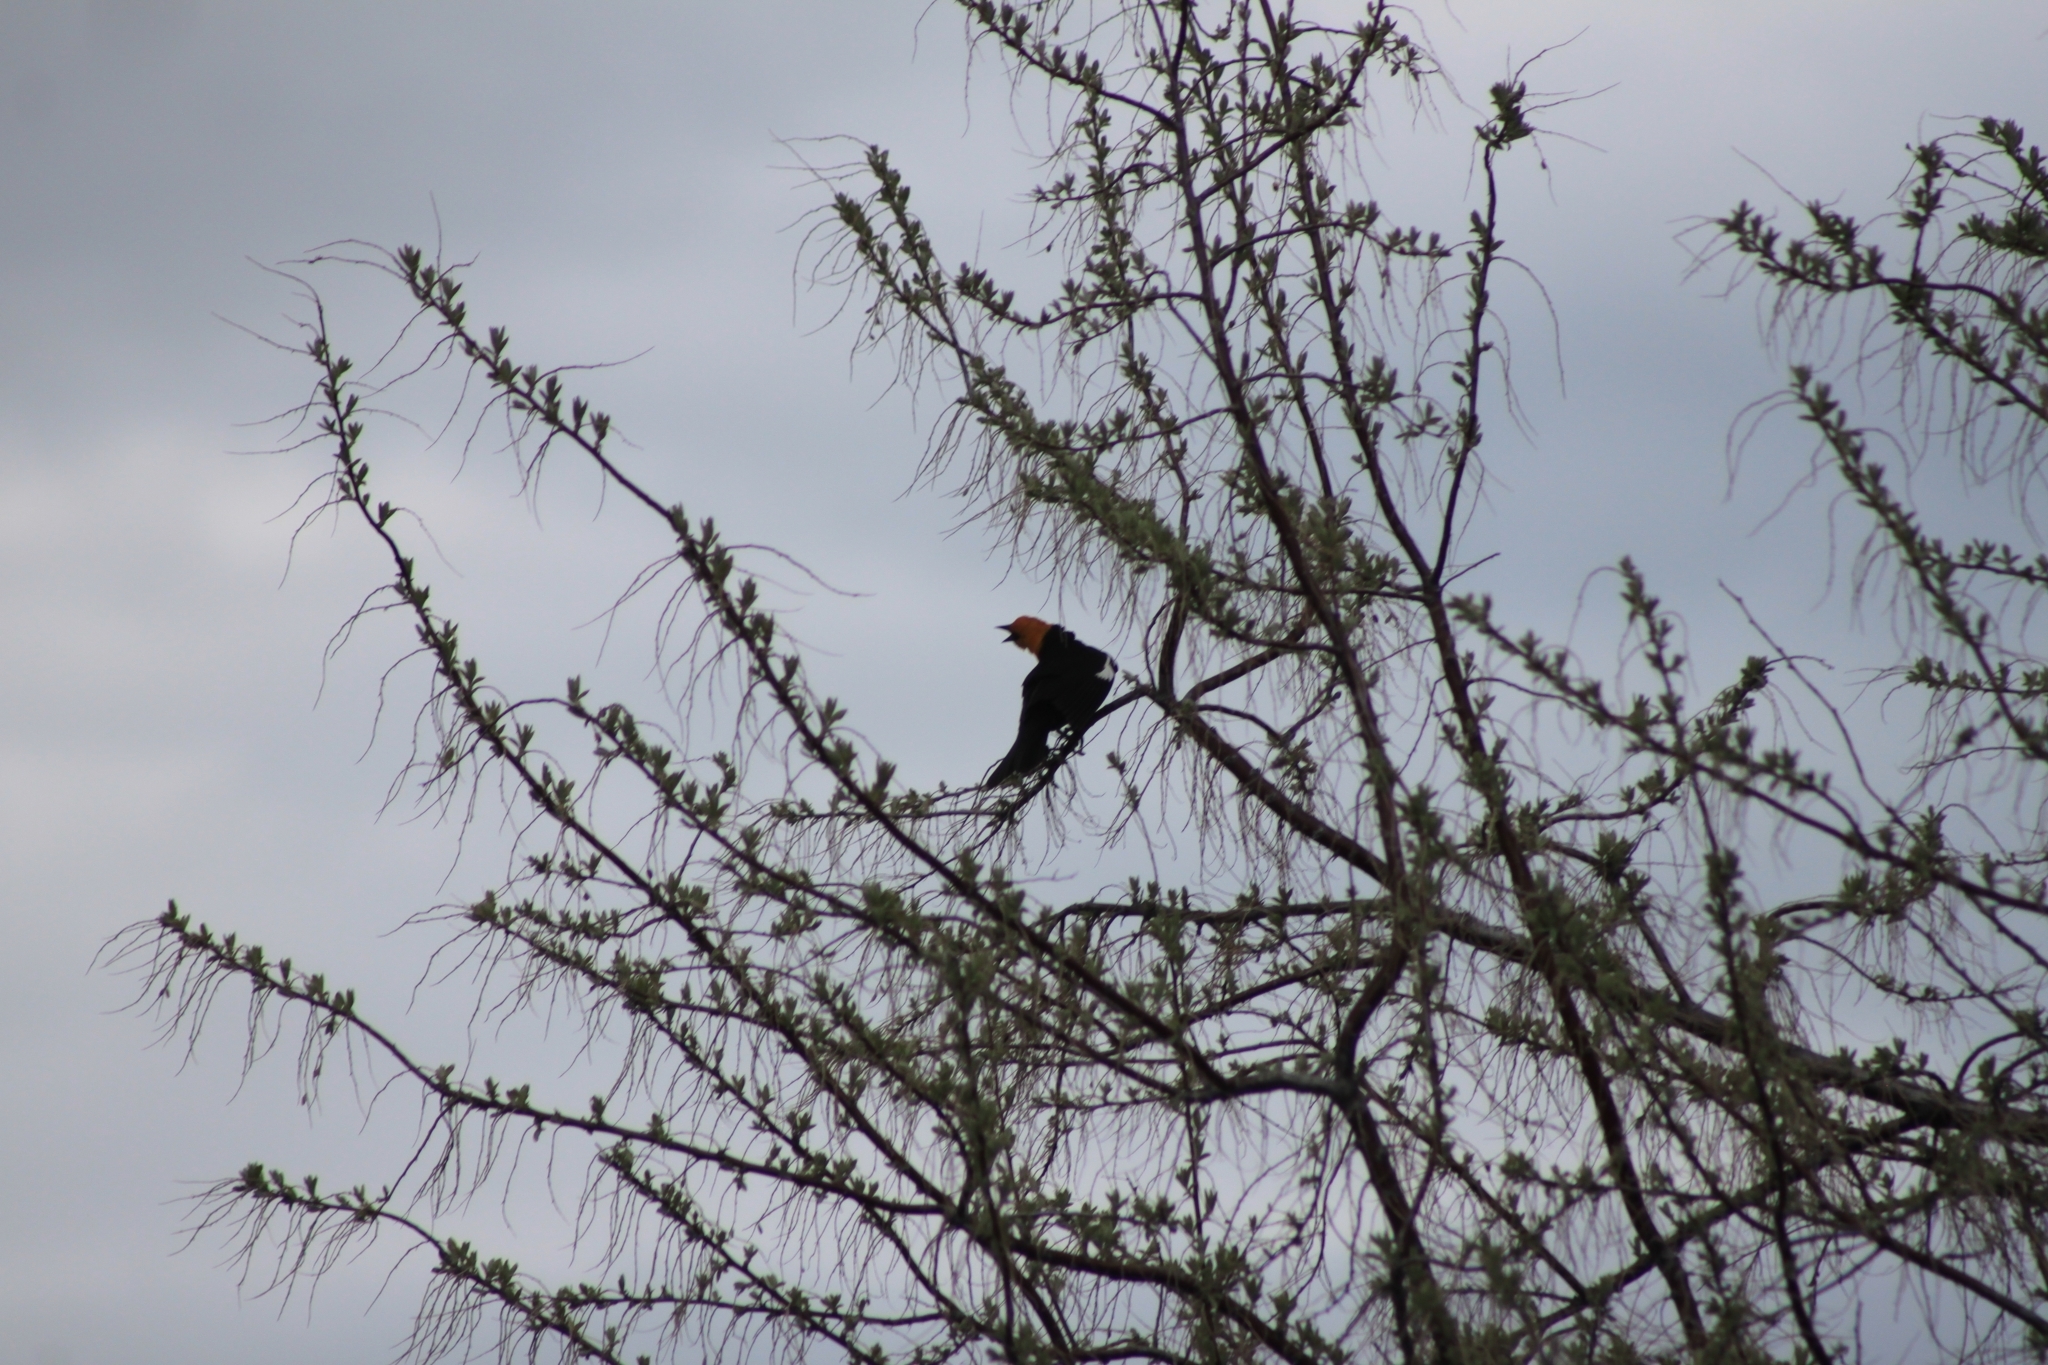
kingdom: Animalia
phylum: Chordata
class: Aves
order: Passeriformes
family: Icteridae
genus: Xanthocephalus
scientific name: Xanthocephalus xanthocephalus
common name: Yellow-headed blackbird
